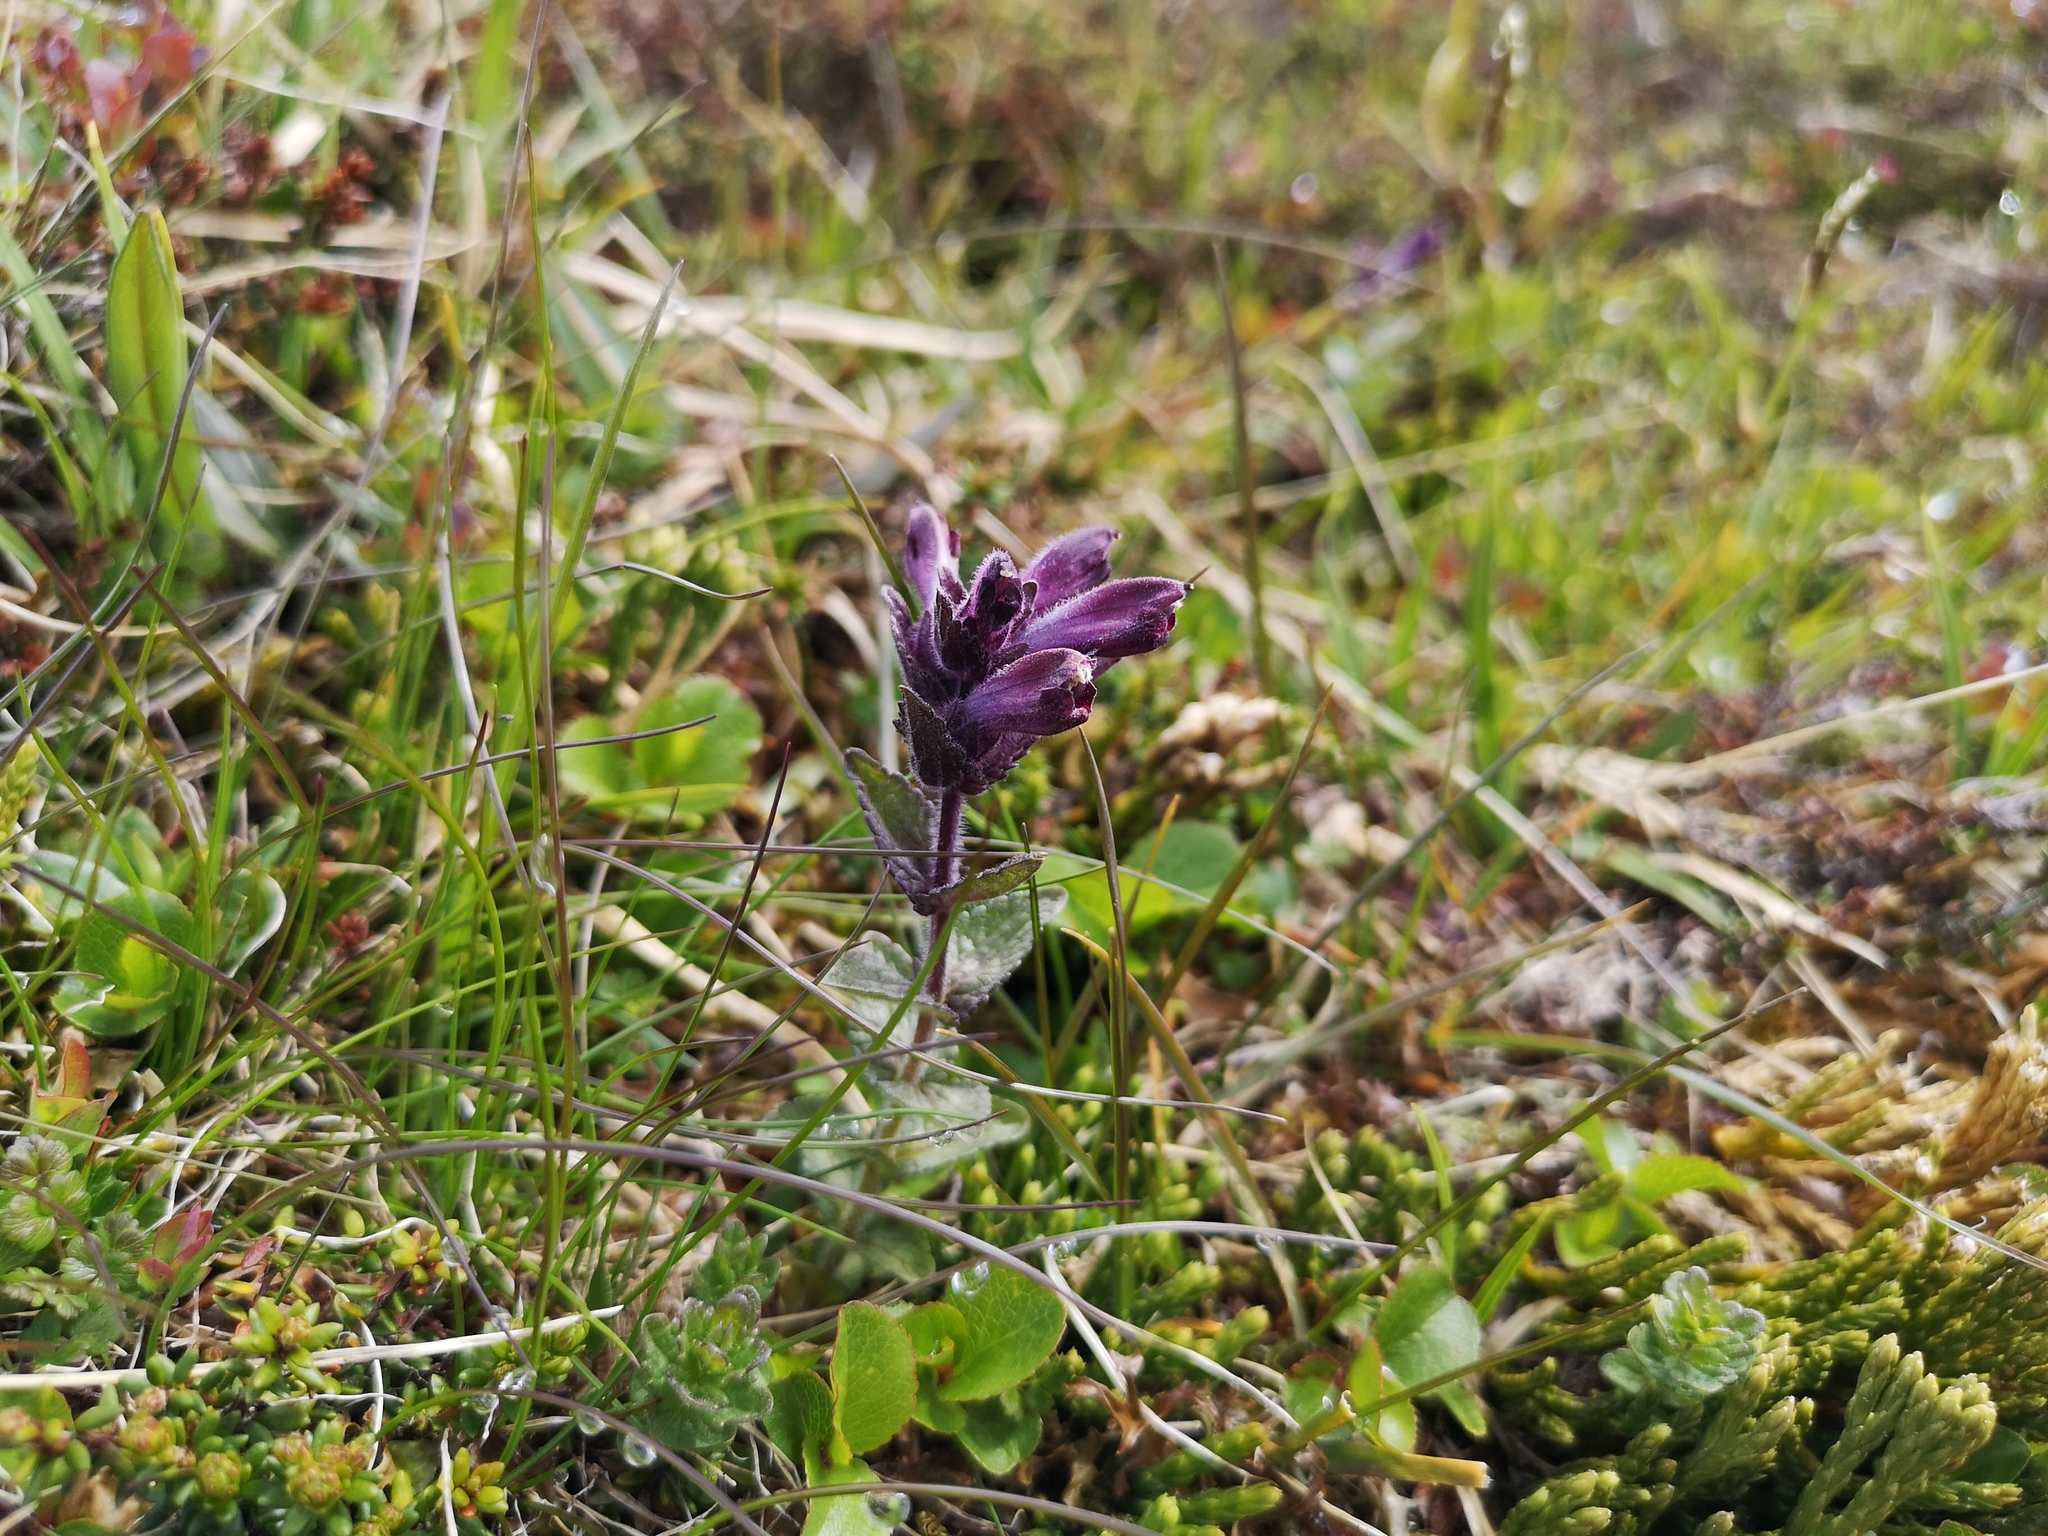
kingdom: Plantae
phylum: Tracheophyta
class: Magnoliopsida
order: Lamiales
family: Orobanchaceae
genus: Bartsia
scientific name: Bartsia alpina
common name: Alpine bartsia
